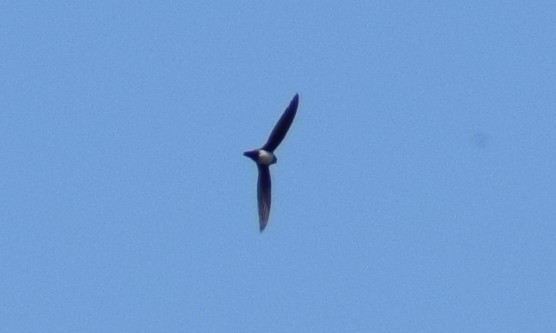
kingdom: Animalia
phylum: Chordata
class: Aves
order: Apodiformes
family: Apodidae
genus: Tachymarptis
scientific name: Tachymarptis melba
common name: Alpine swift
